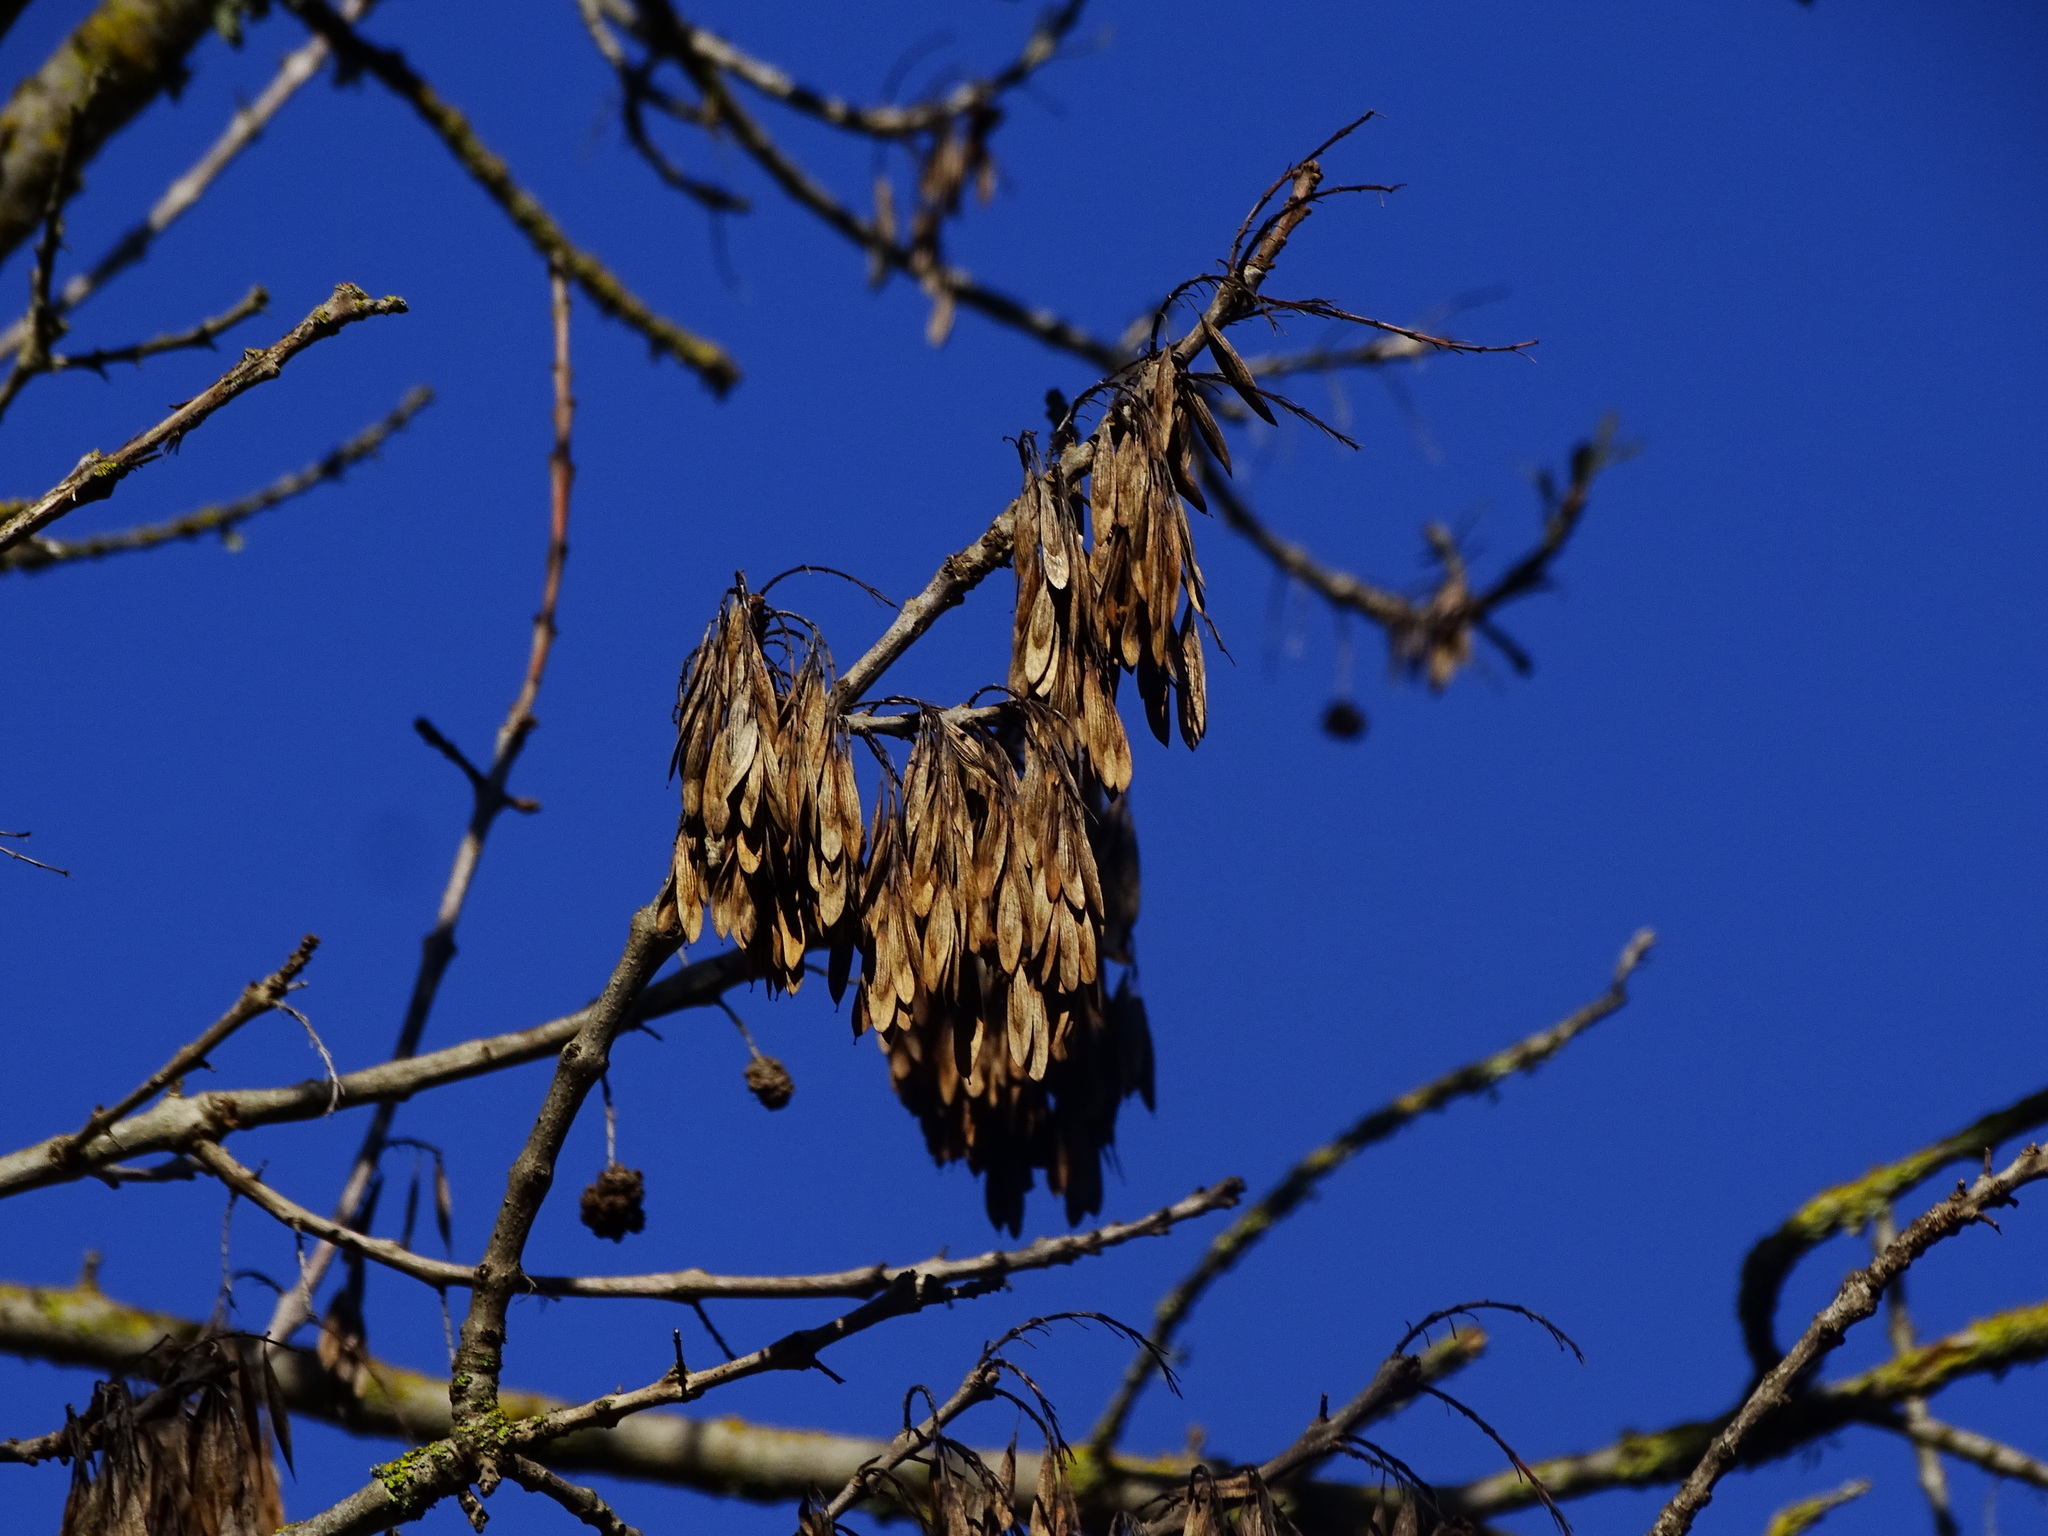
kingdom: Plantae
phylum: Tracheophyta
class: Magnoliopsida
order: Lamiales
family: Oleaceae
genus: Fraxinus
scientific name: Fraxinus angustifolia
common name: Narrow-leafed ash
